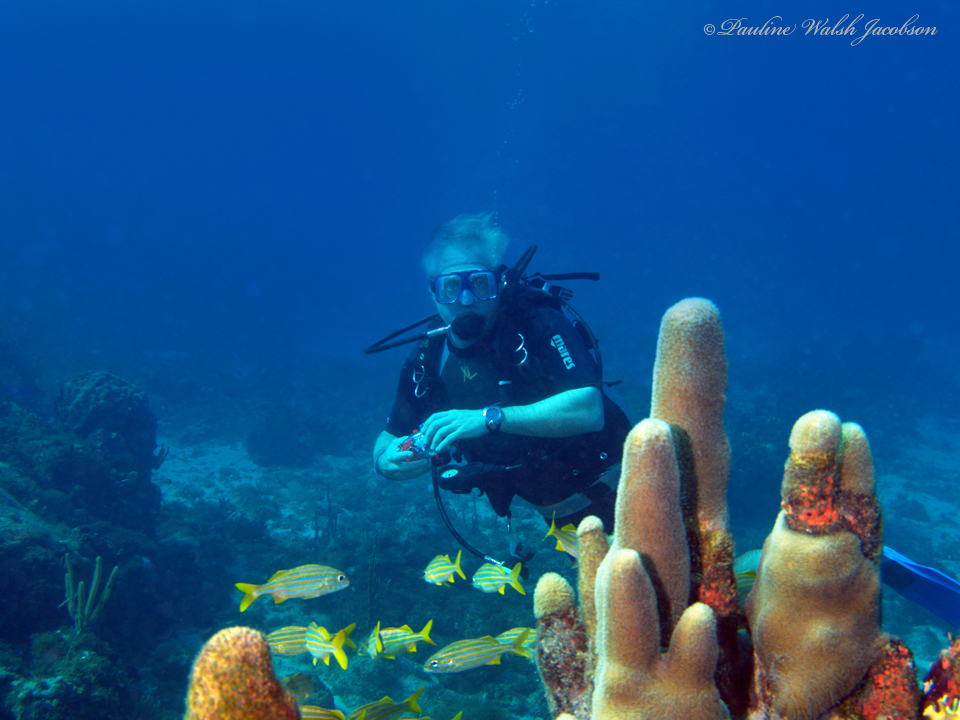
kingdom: Animalia
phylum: Cnidaria
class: Anthozoa
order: Scleractinia
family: Meandrinidae
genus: Dendrogyra
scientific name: Dendrogyra cylindrus
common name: Pillar coral
